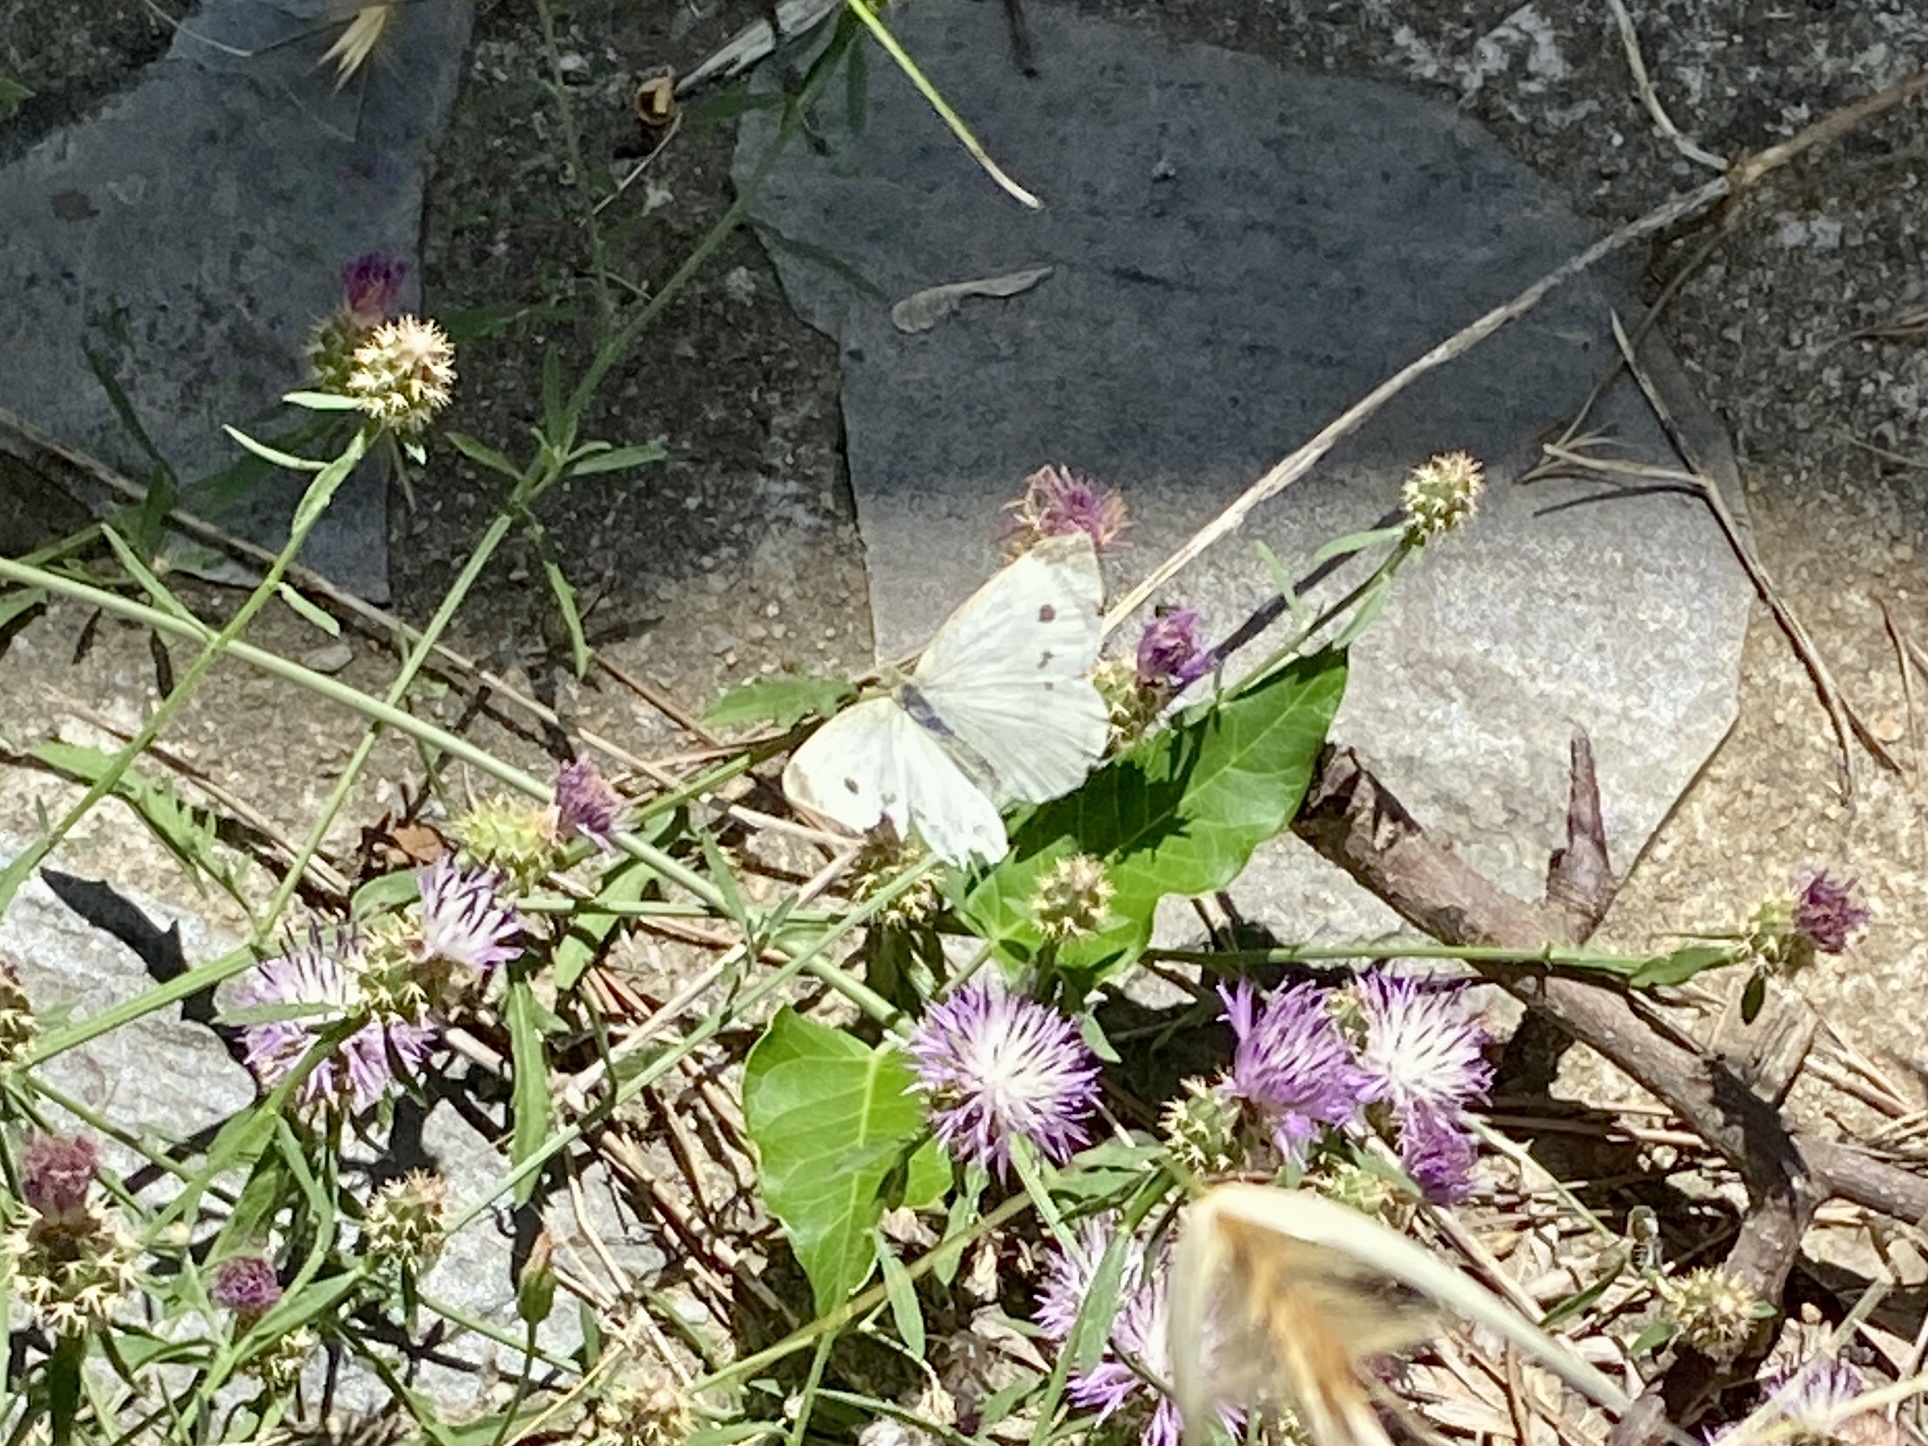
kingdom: Animalia
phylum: Arthropoda
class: Insecta
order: Lepidoptera
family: Pieridae
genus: Pieris
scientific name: Pieris rapae
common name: Small white
